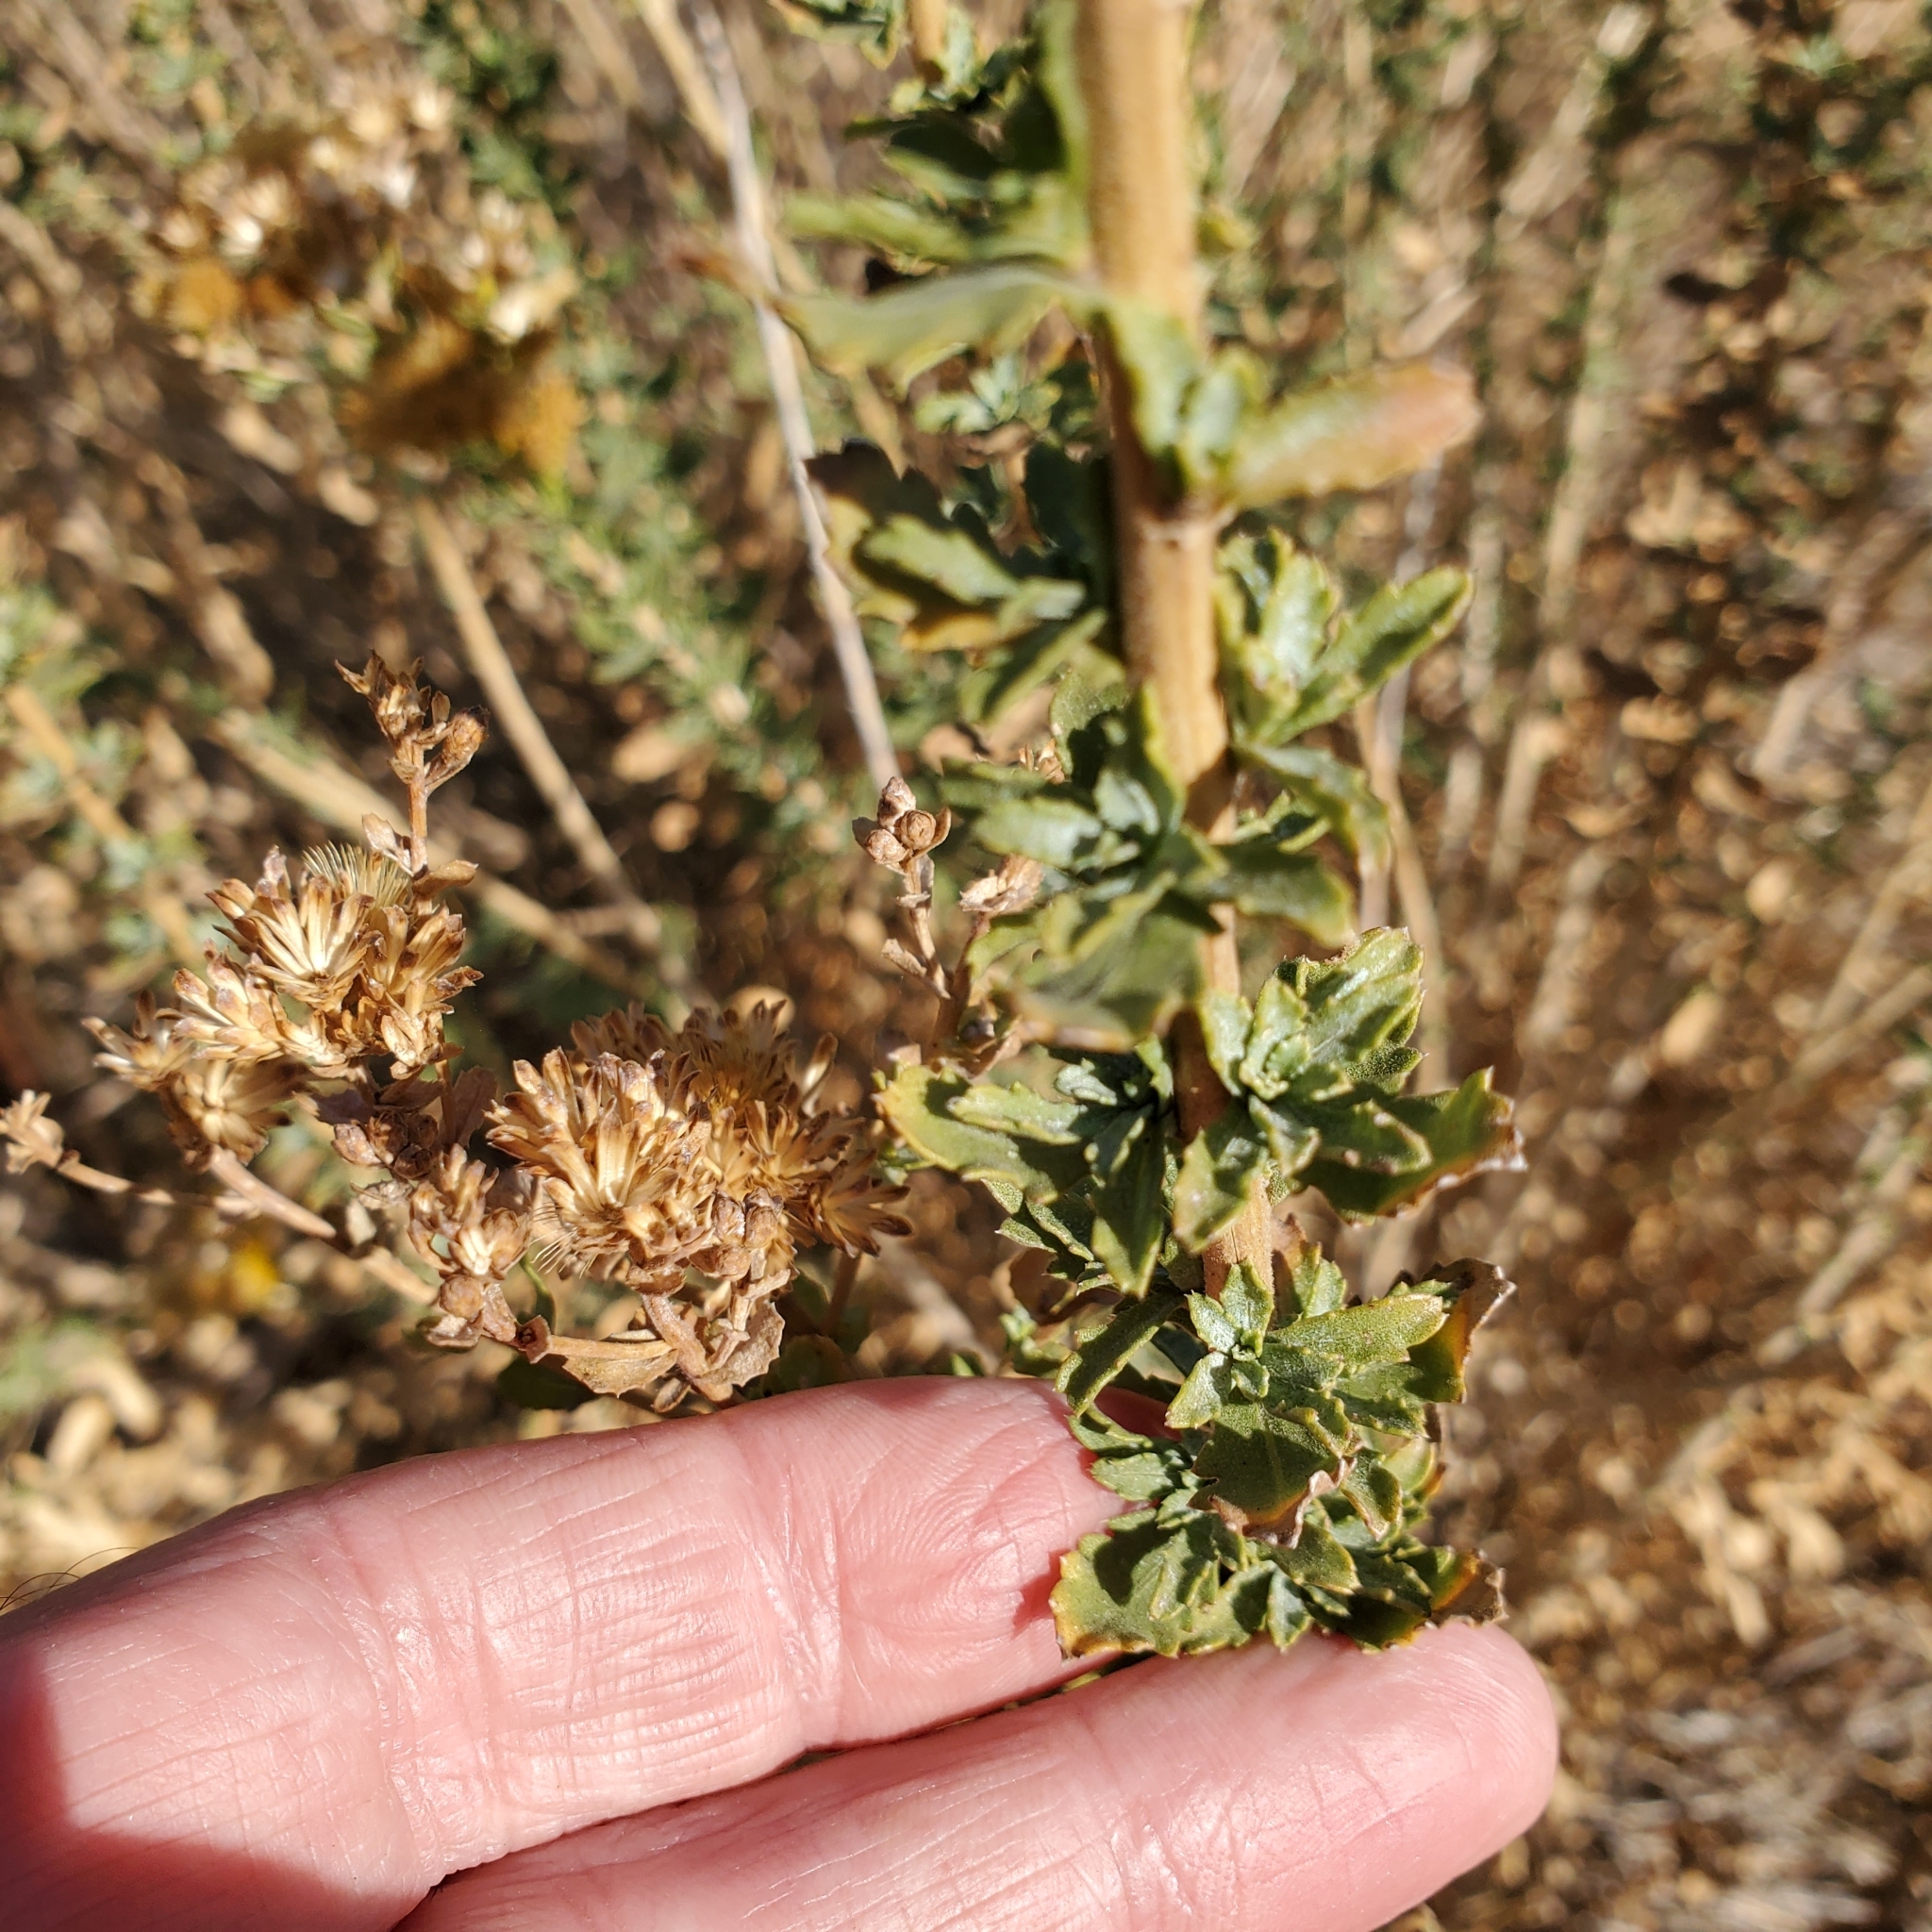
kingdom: Plantae
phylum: Tracheophyta
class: Magnoliopsida
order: Asterales
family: Asteraceae
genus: Isocoma
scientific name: Isocoma menziesii
